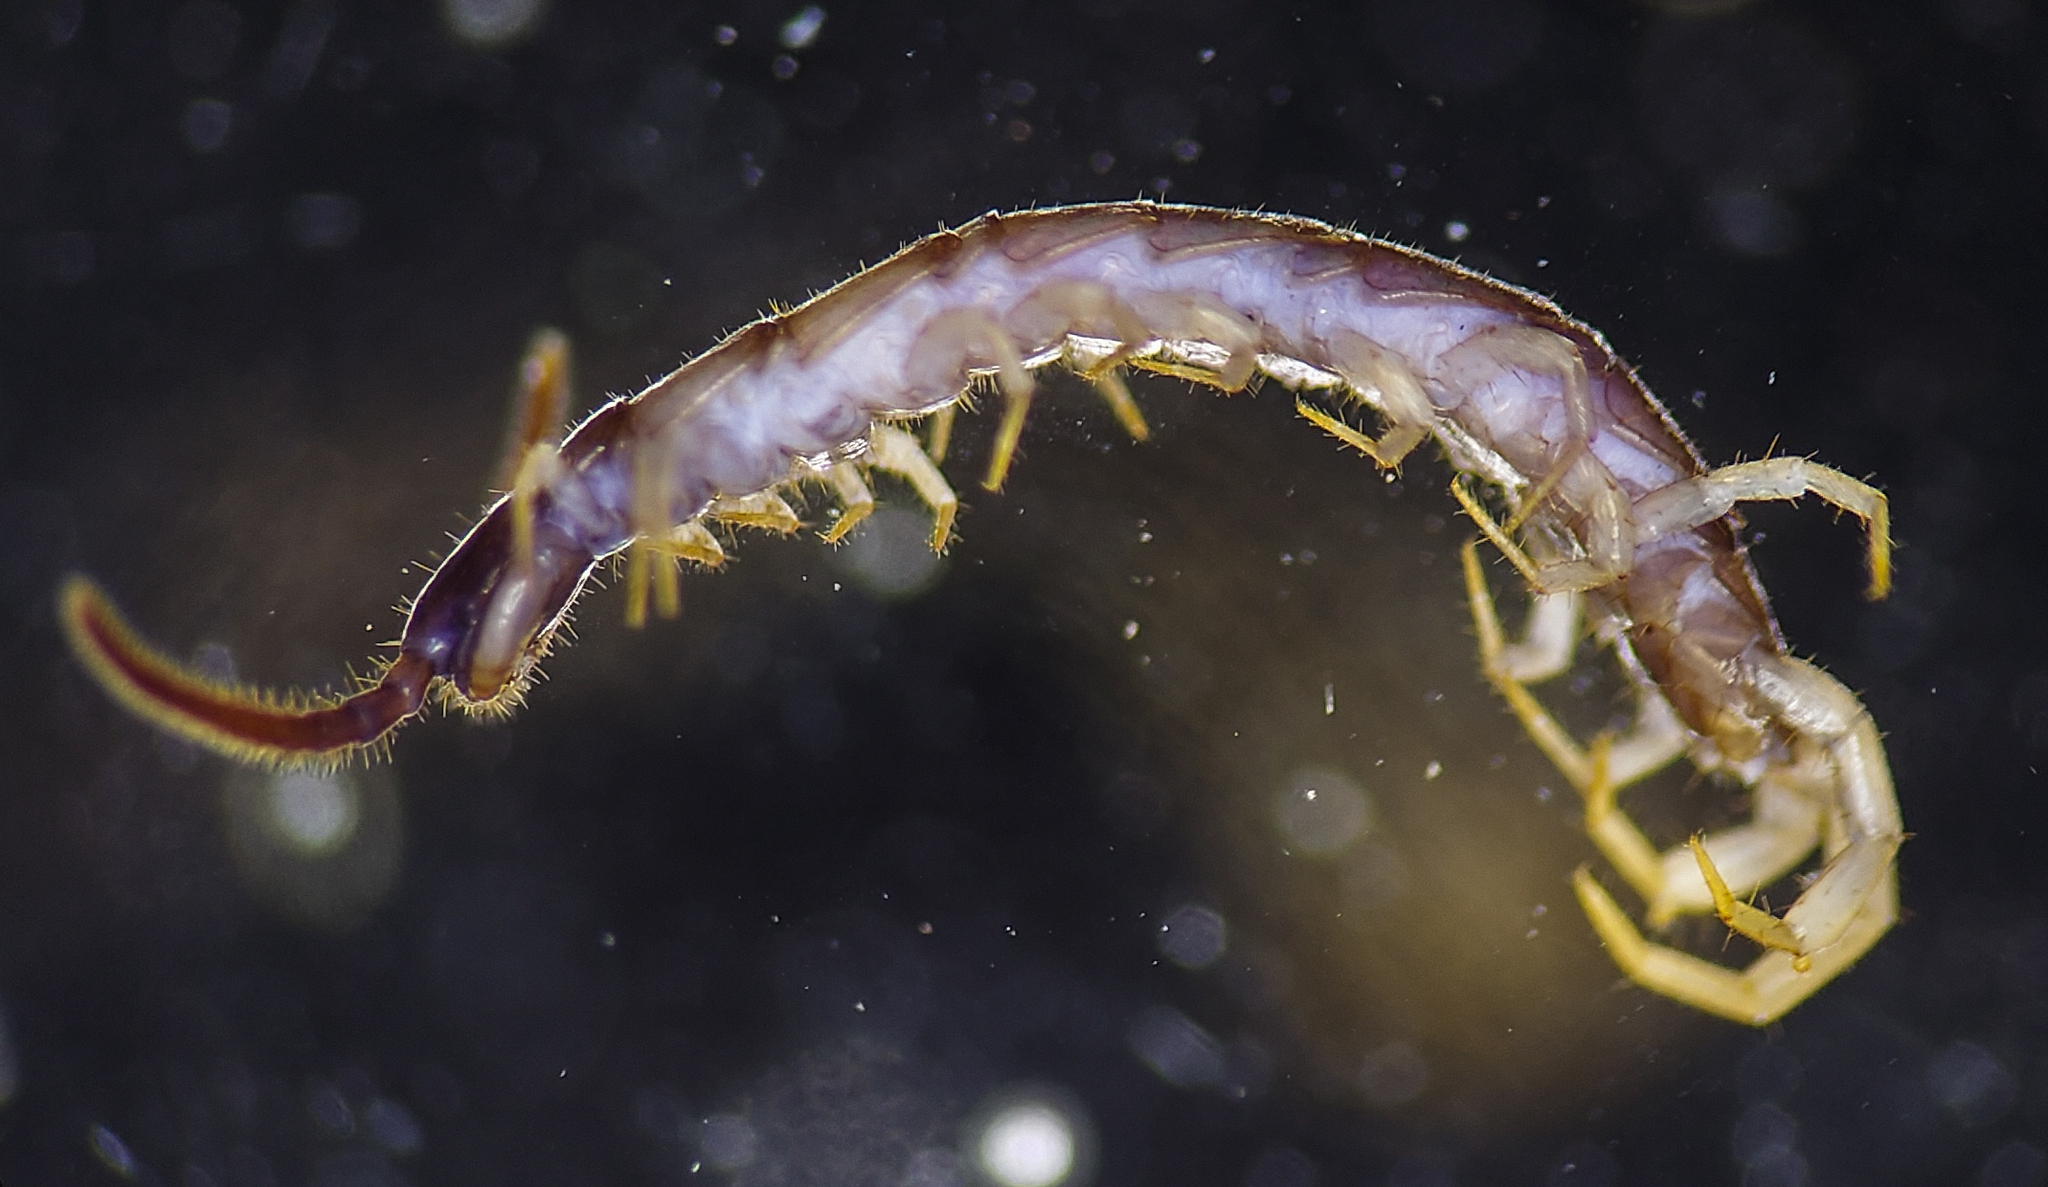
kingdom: Animalia
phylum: Arthropoda
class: Chilopoda
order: Lithobiomorpha
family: Lithobiidae
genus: Nampabius
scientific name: Nampabius fungiferopes
